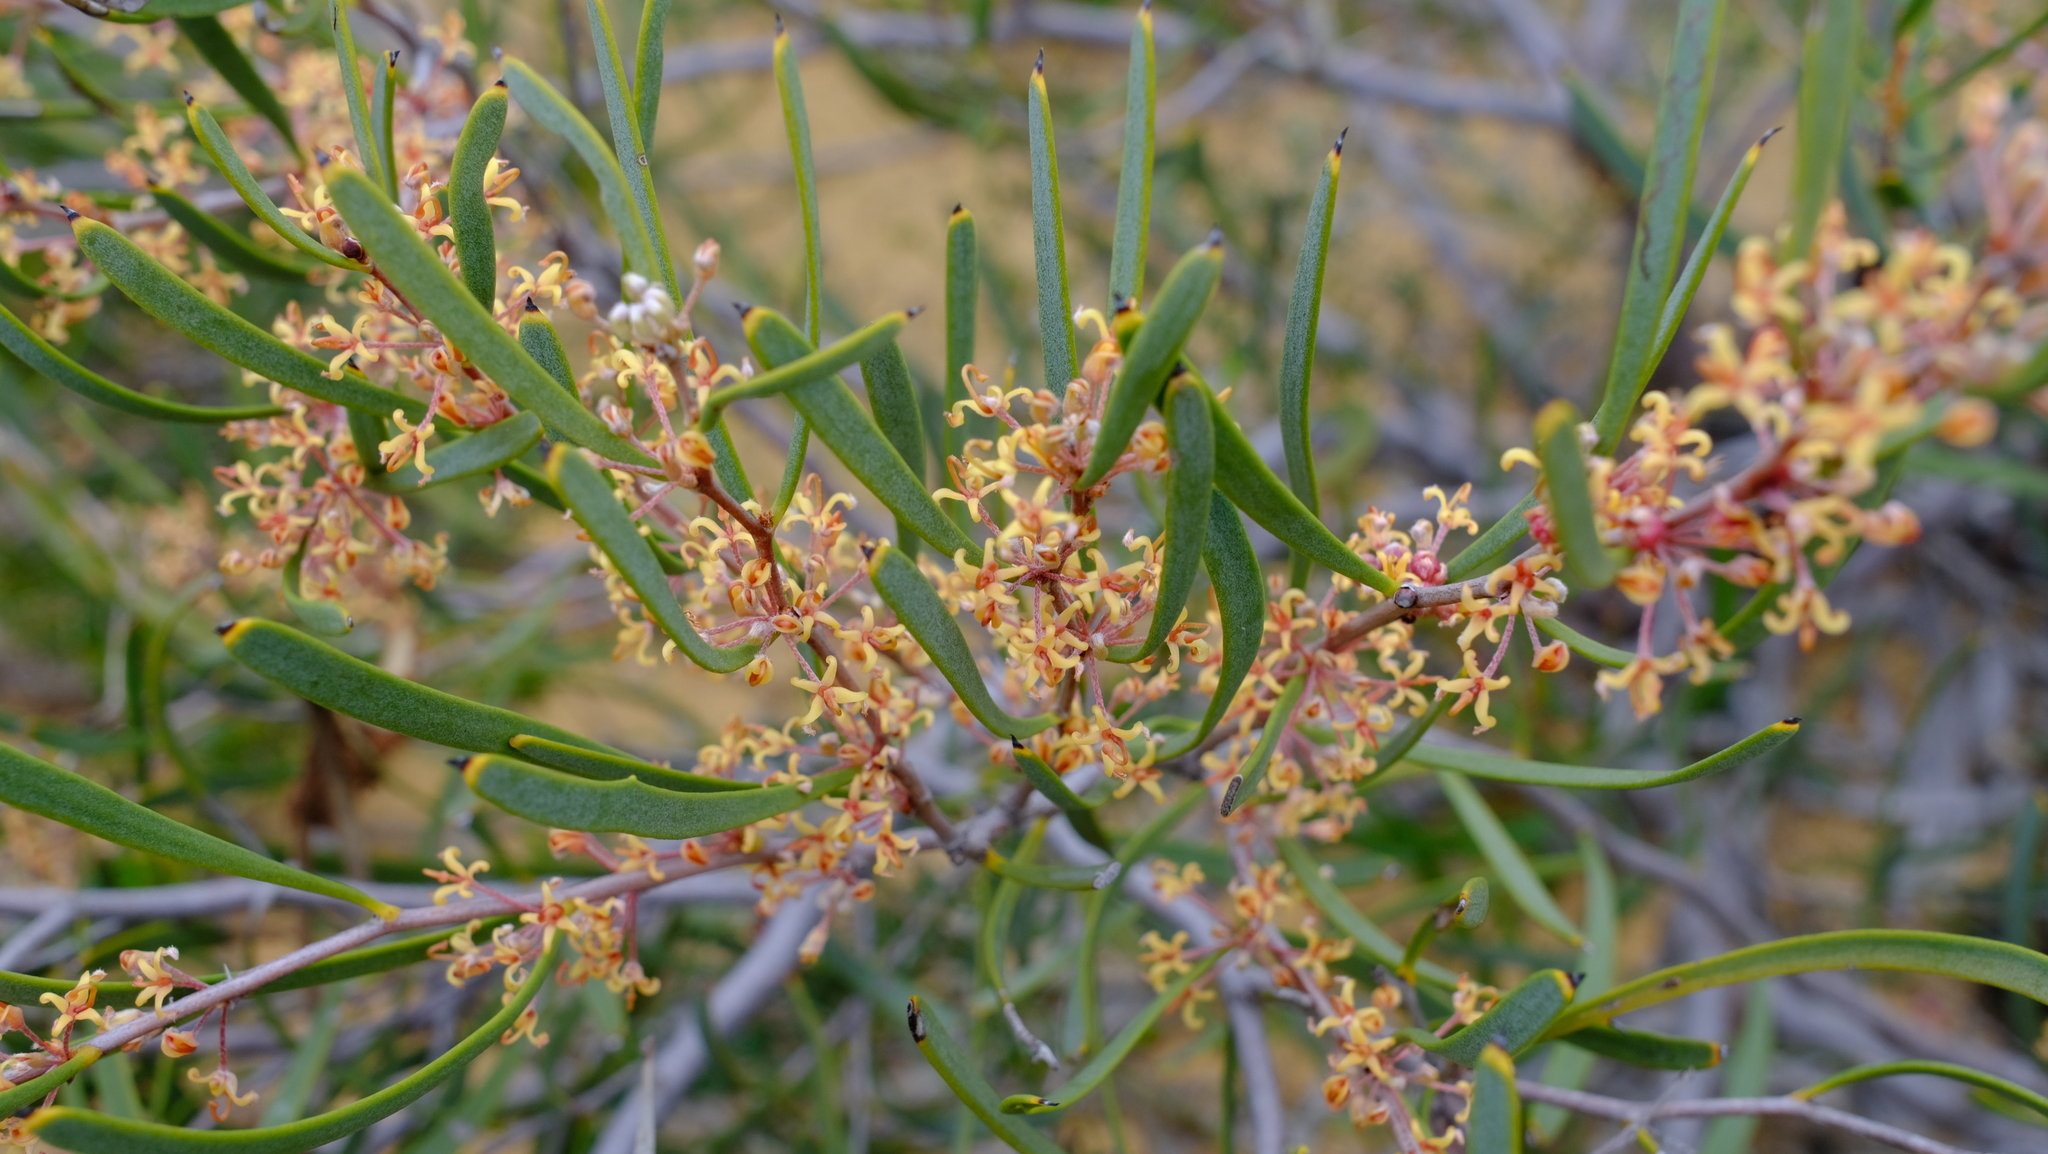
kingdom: Plantae
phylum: Tracheophyta
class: Magnoliopsida
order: Proteales
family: Proteaceae
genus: Hakea
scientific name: Hakea candolleana
